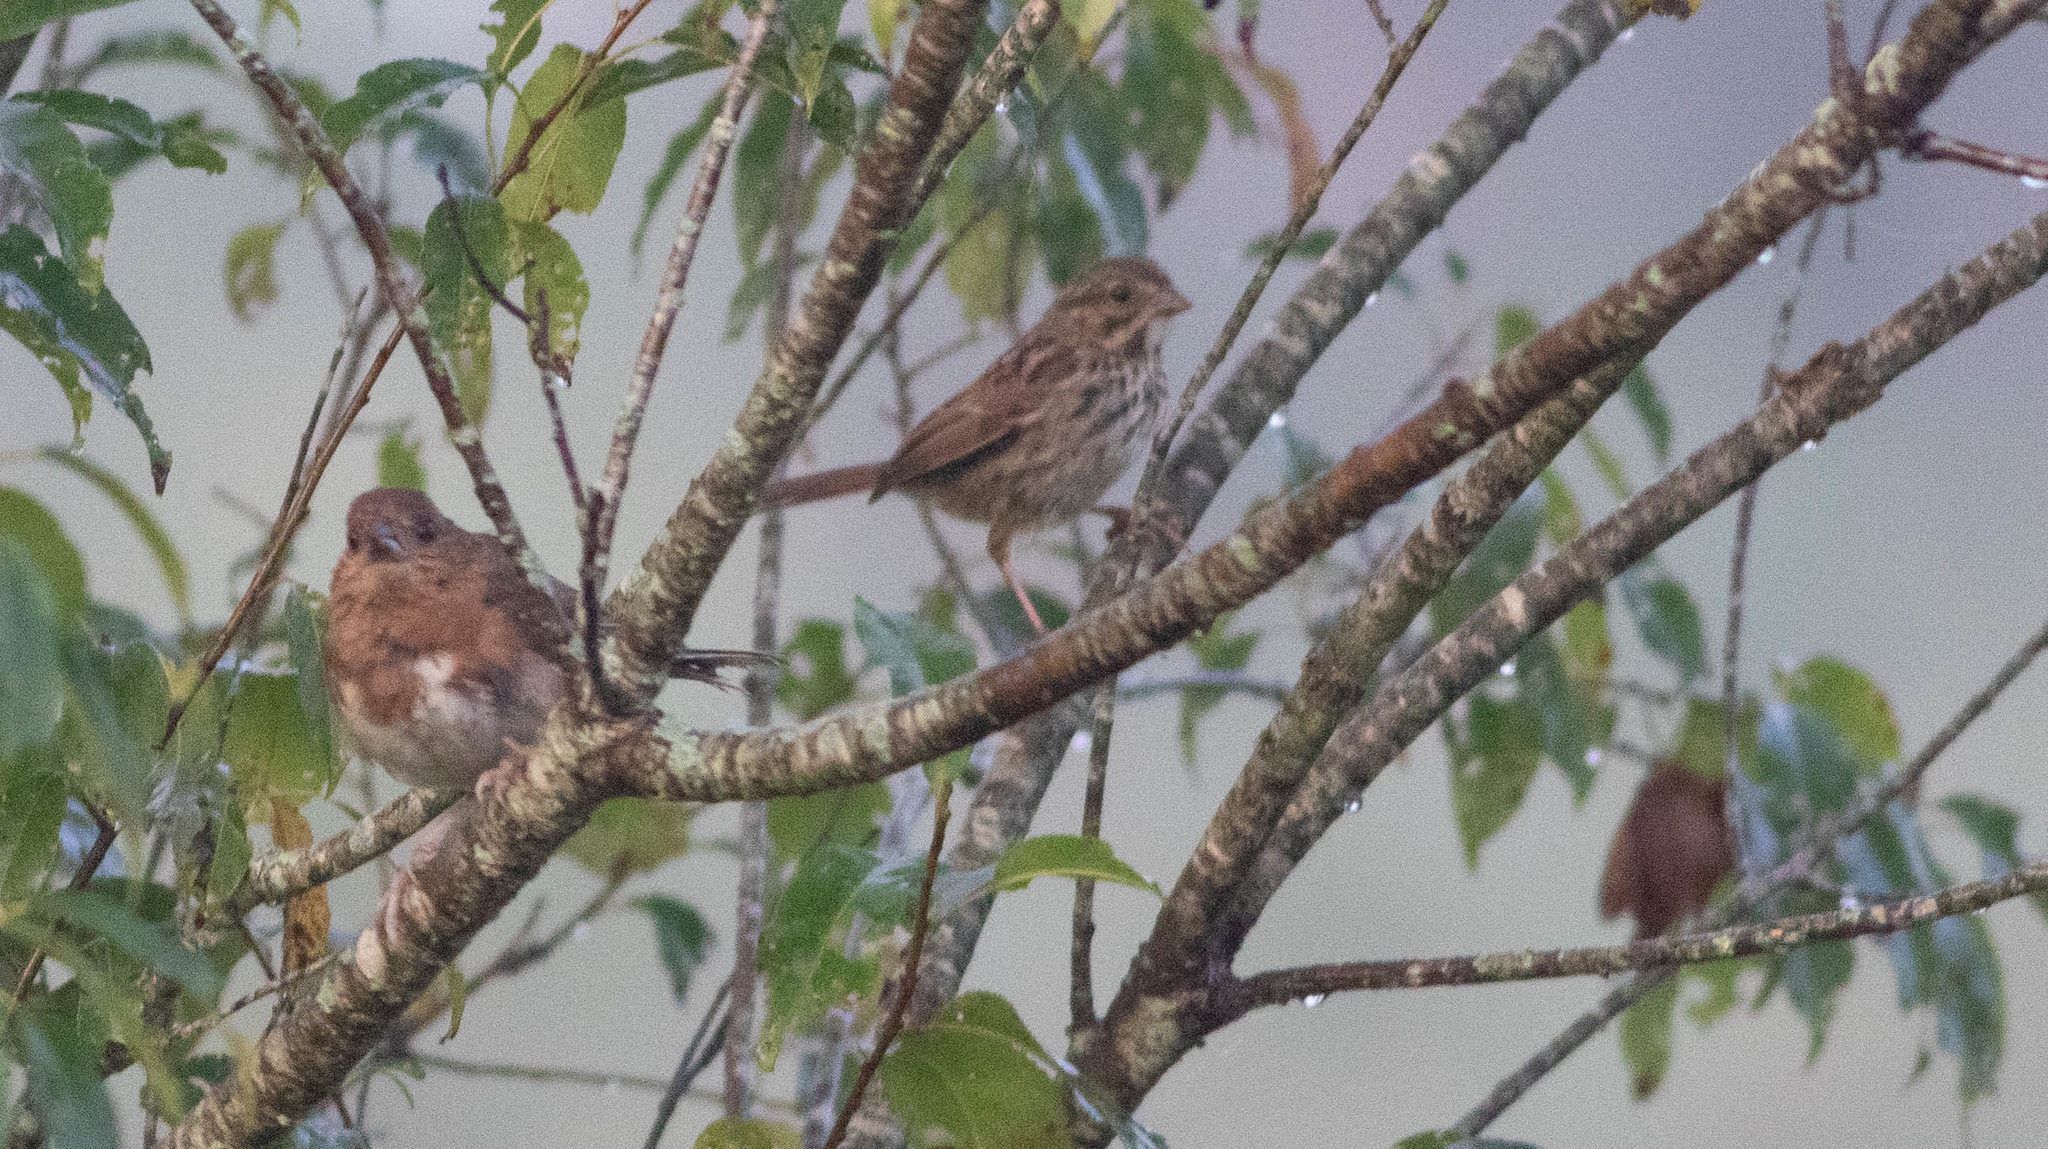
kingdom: Animalia
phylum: Chordata
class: Aves
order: Passeriformes
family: Passerellidae
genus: Pipilo
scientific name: Pipilo erythrophthalmus
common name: Eastern towhee
